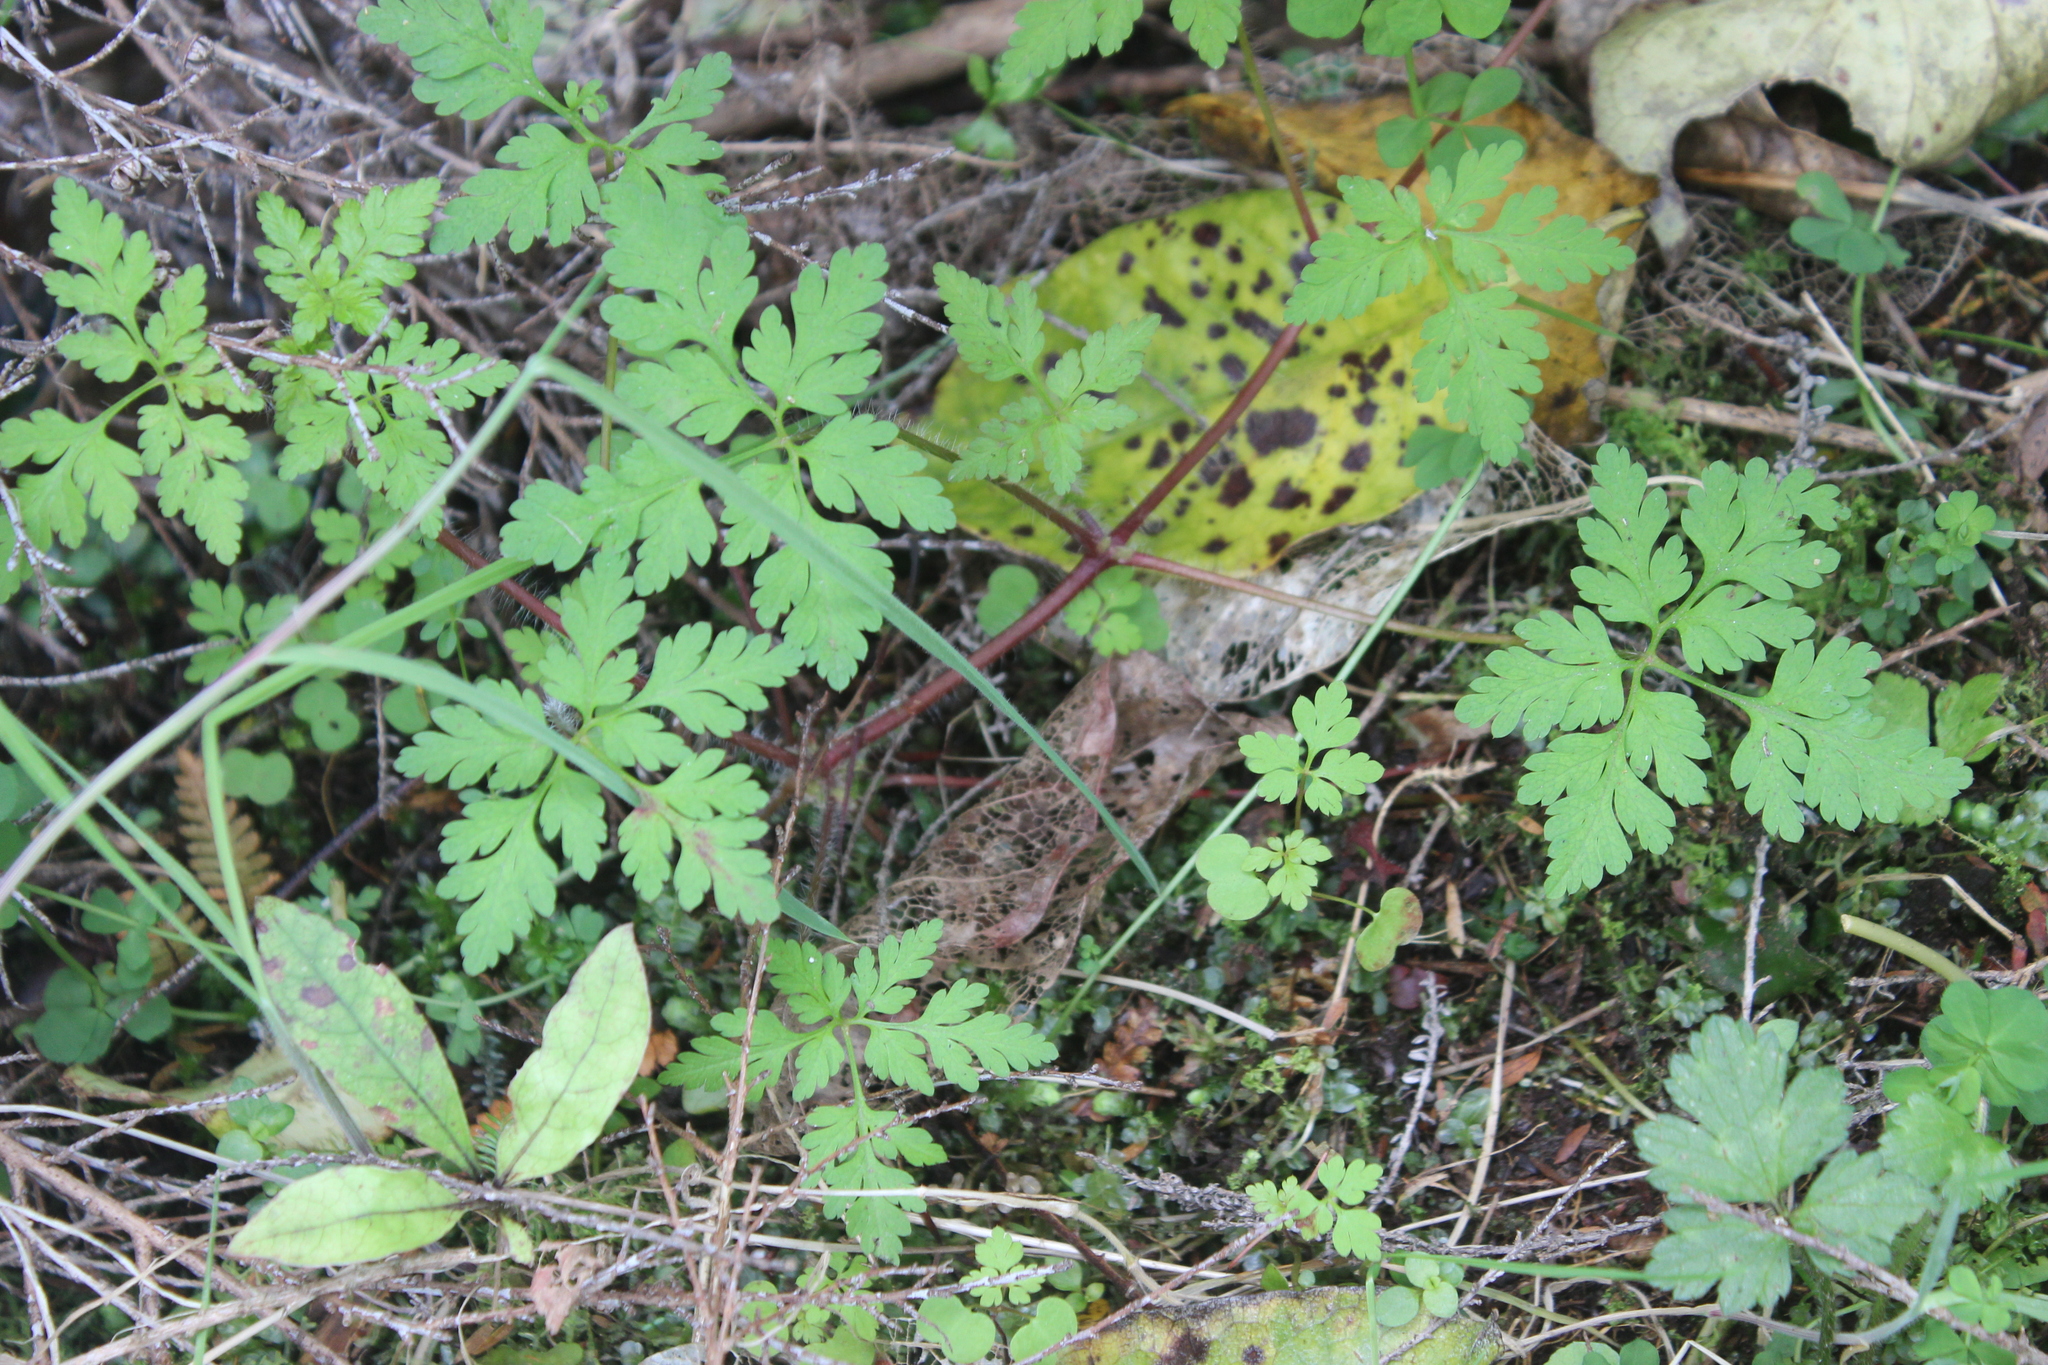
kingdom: Plantae
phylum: Tracheophyta
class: Magnoliopsida
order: Geraniales
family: Geraniaceae
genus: Geranium
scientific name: Geranium robertianum
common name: Herb-robert
